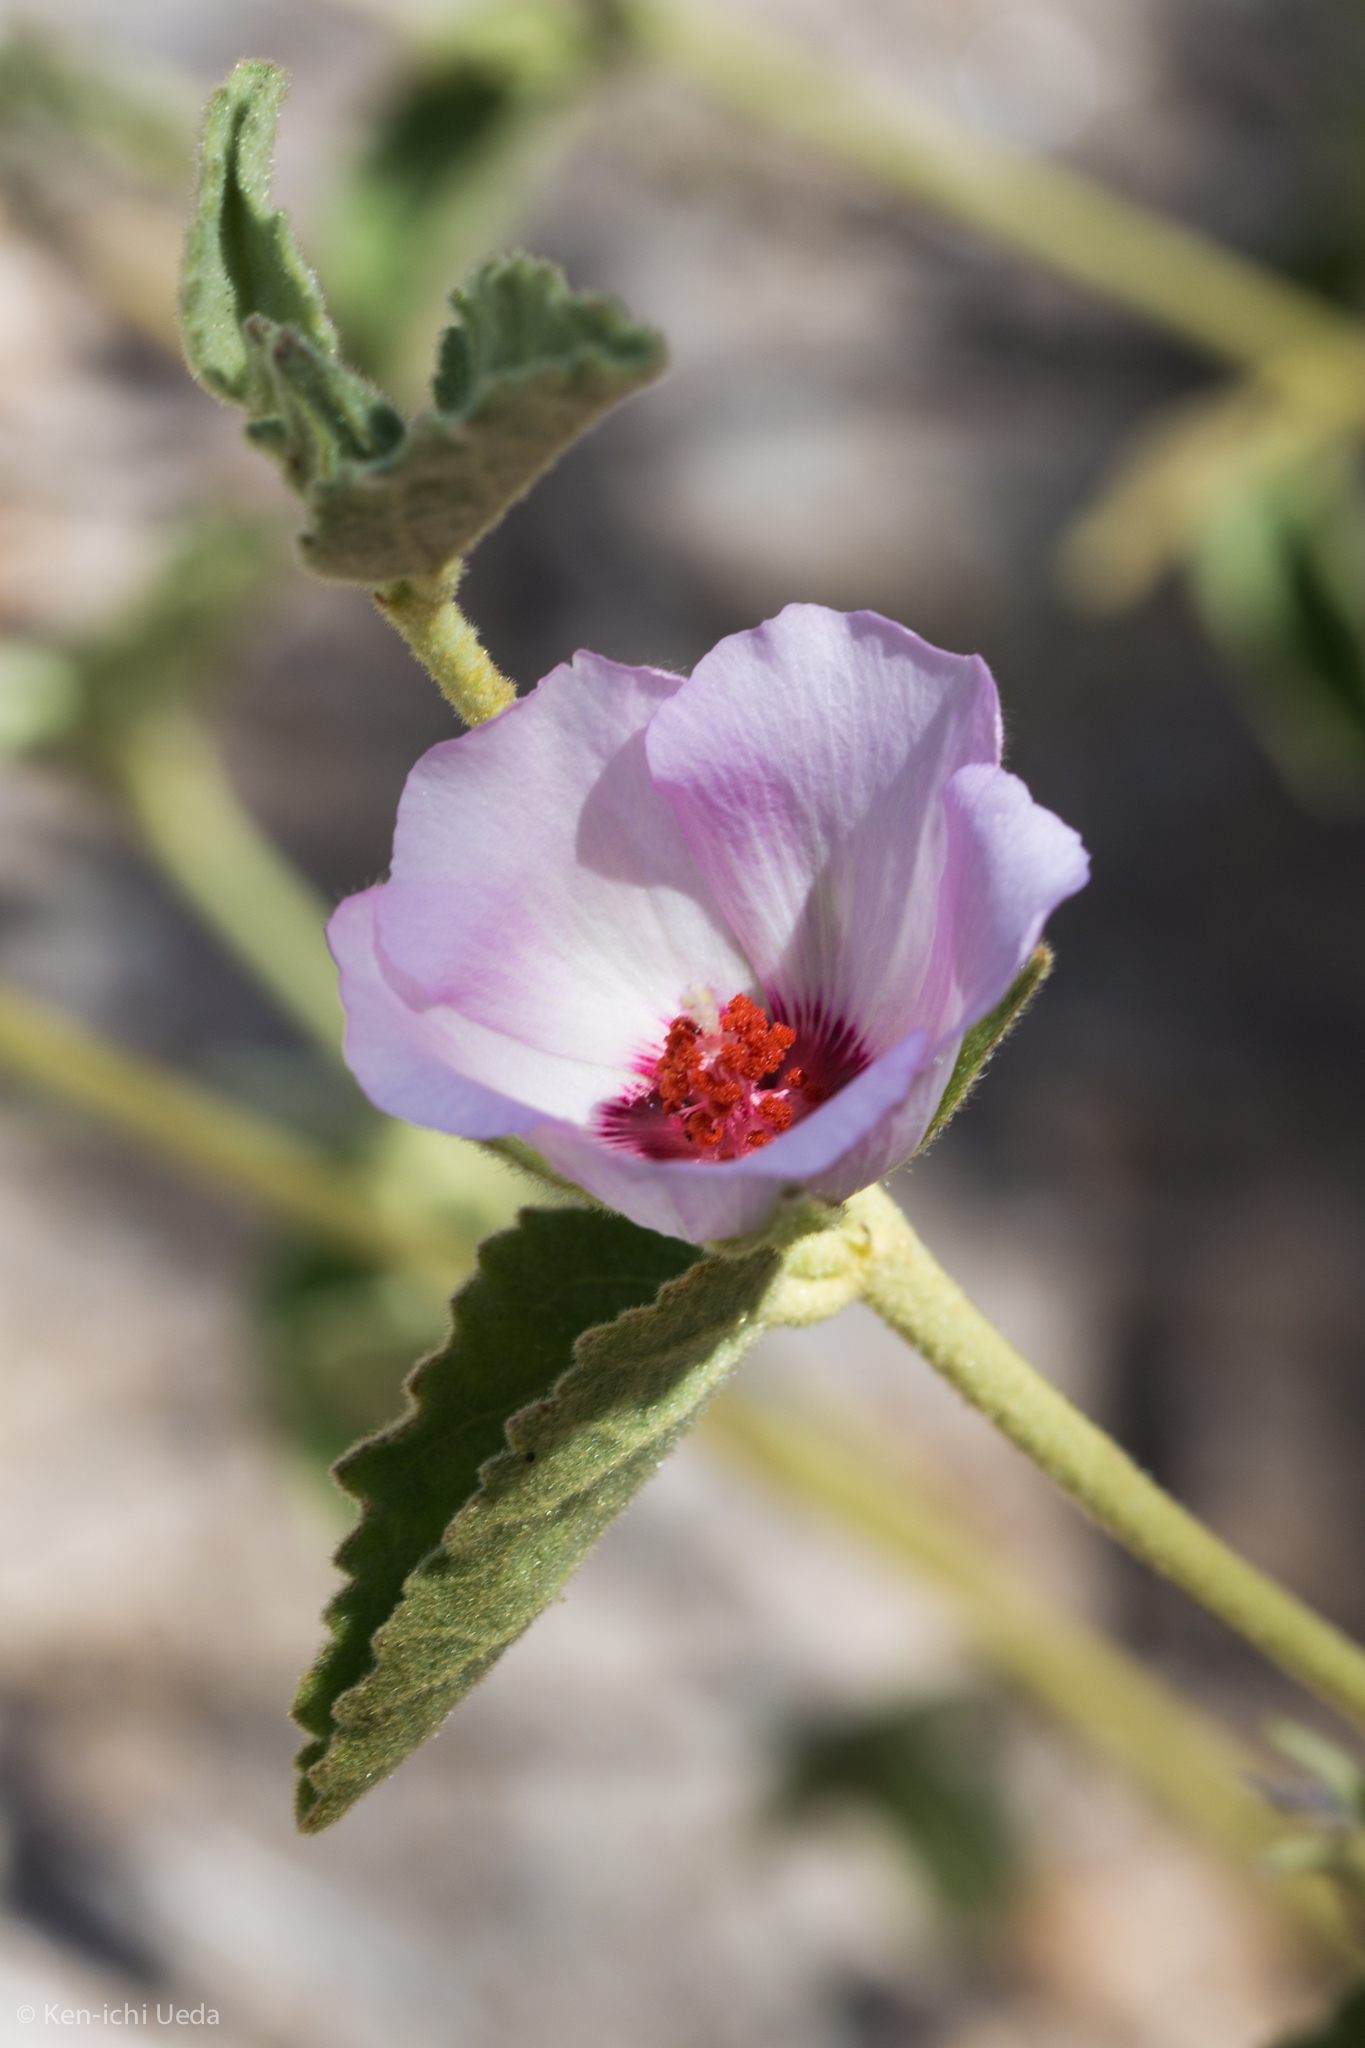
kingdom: Plantae
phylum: Tracheophyta
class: Magnoliopsida
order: Malvales
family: Malvaceae
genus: Hibiscus
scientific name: Hibiscus denudatus
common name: Paleface
